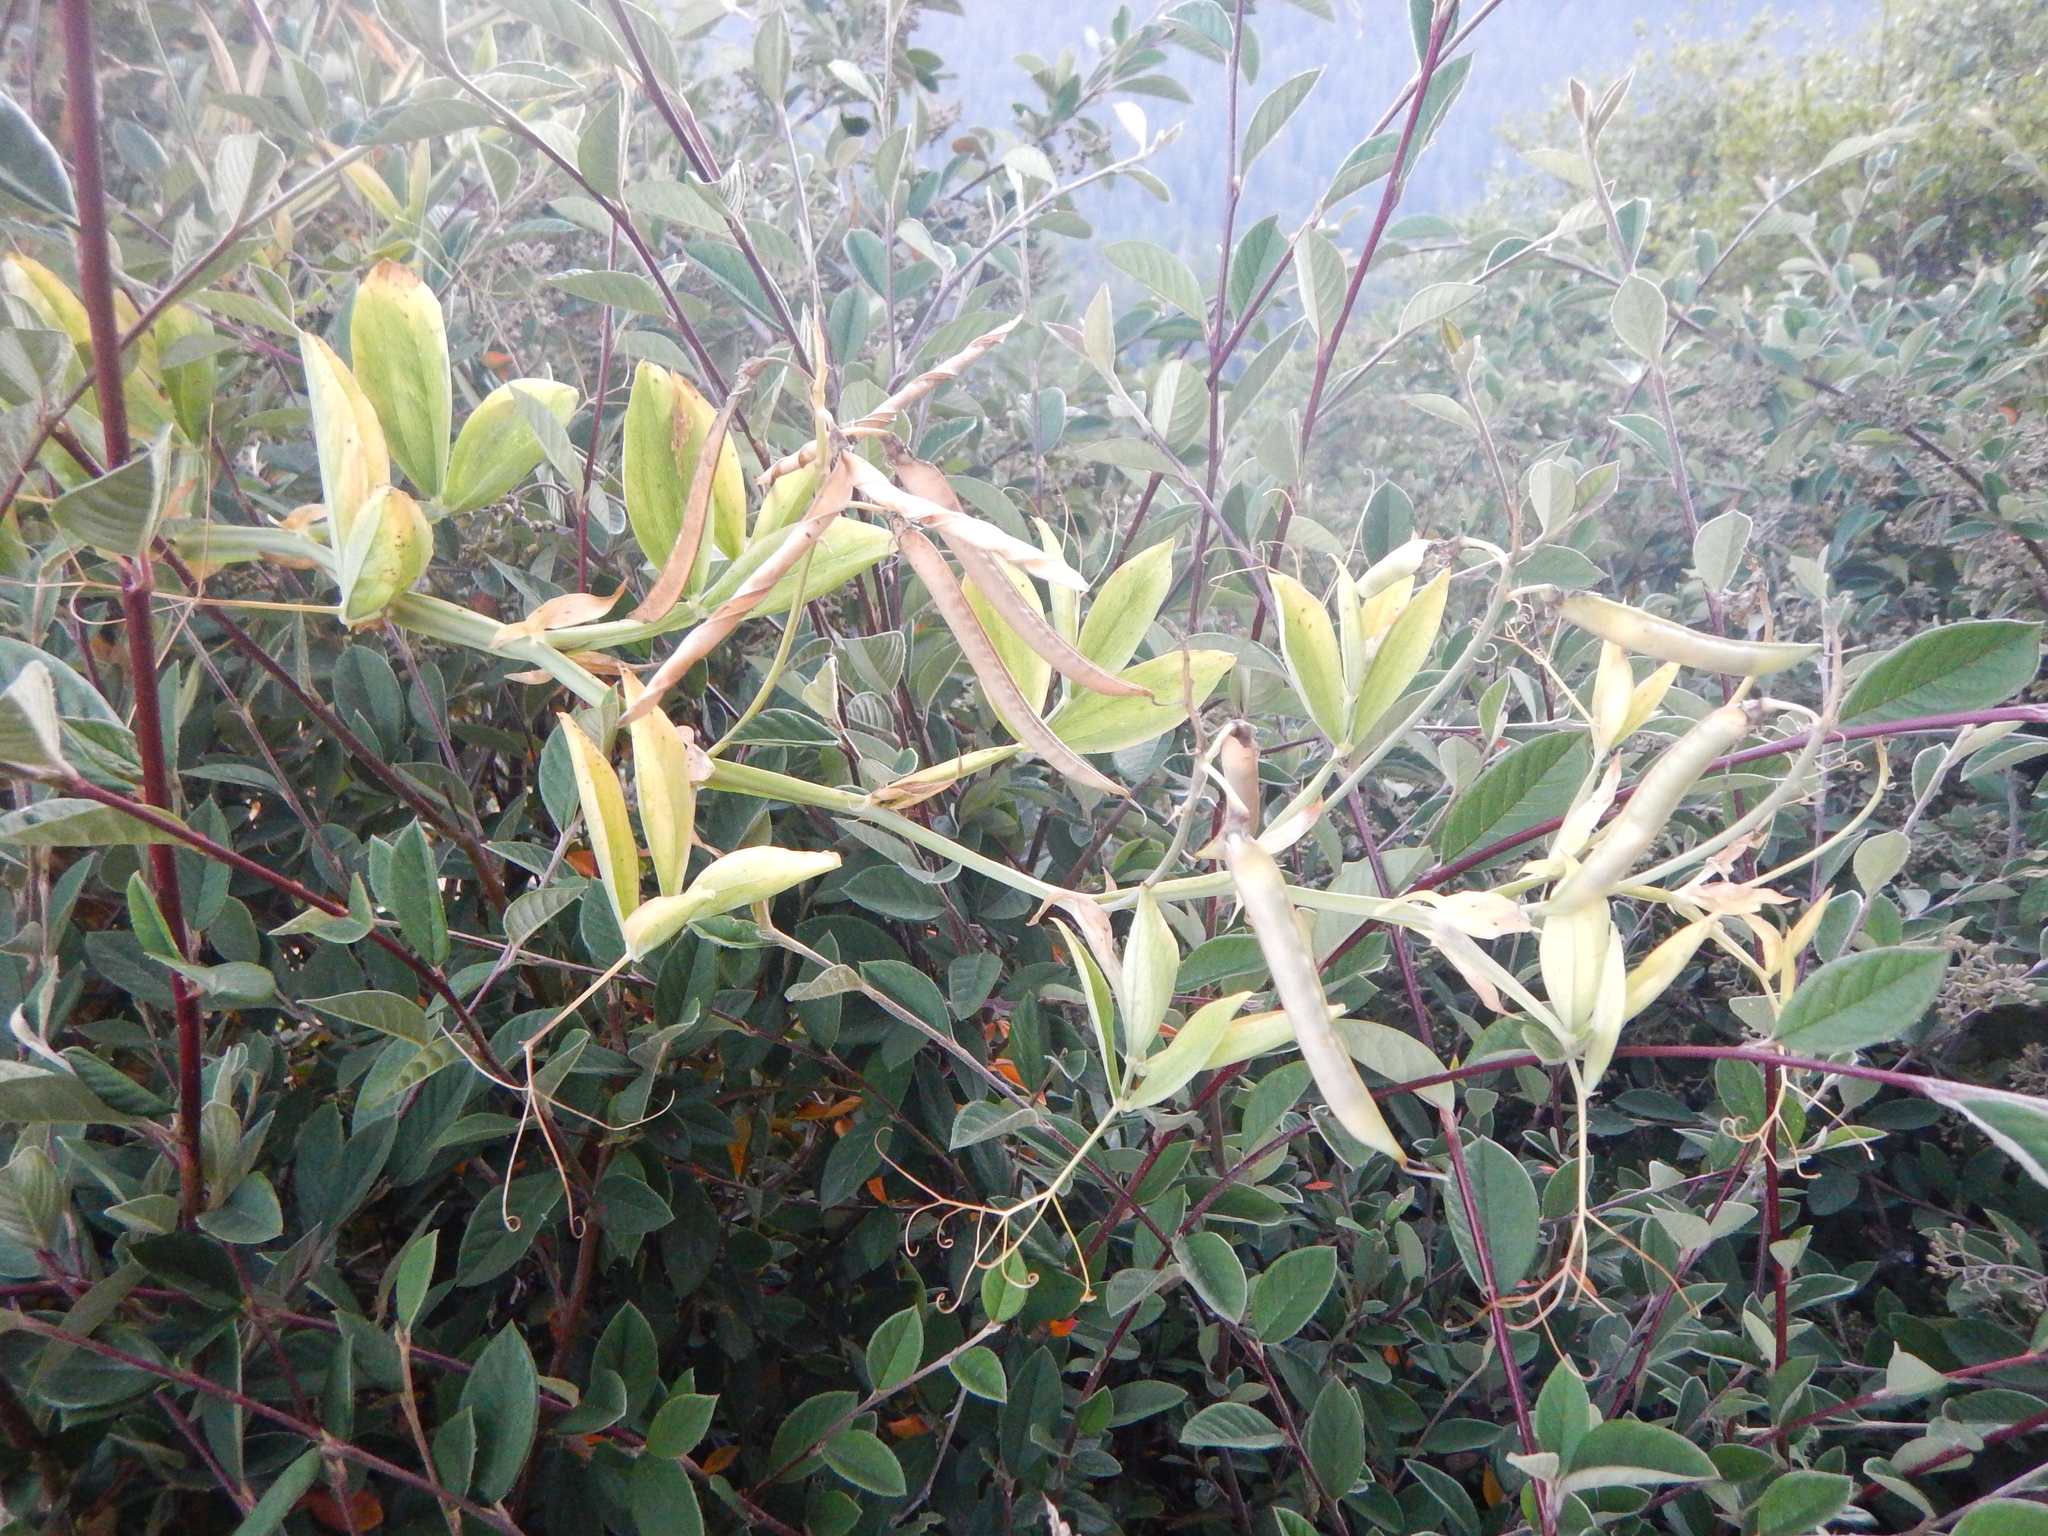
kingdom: Plantae
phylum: Tracheophyta
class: Magnoliopsida
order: Fabales
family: Fabaceae
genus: Lathyrus
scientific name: Lathyrus latifolius
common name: Perennial pea
